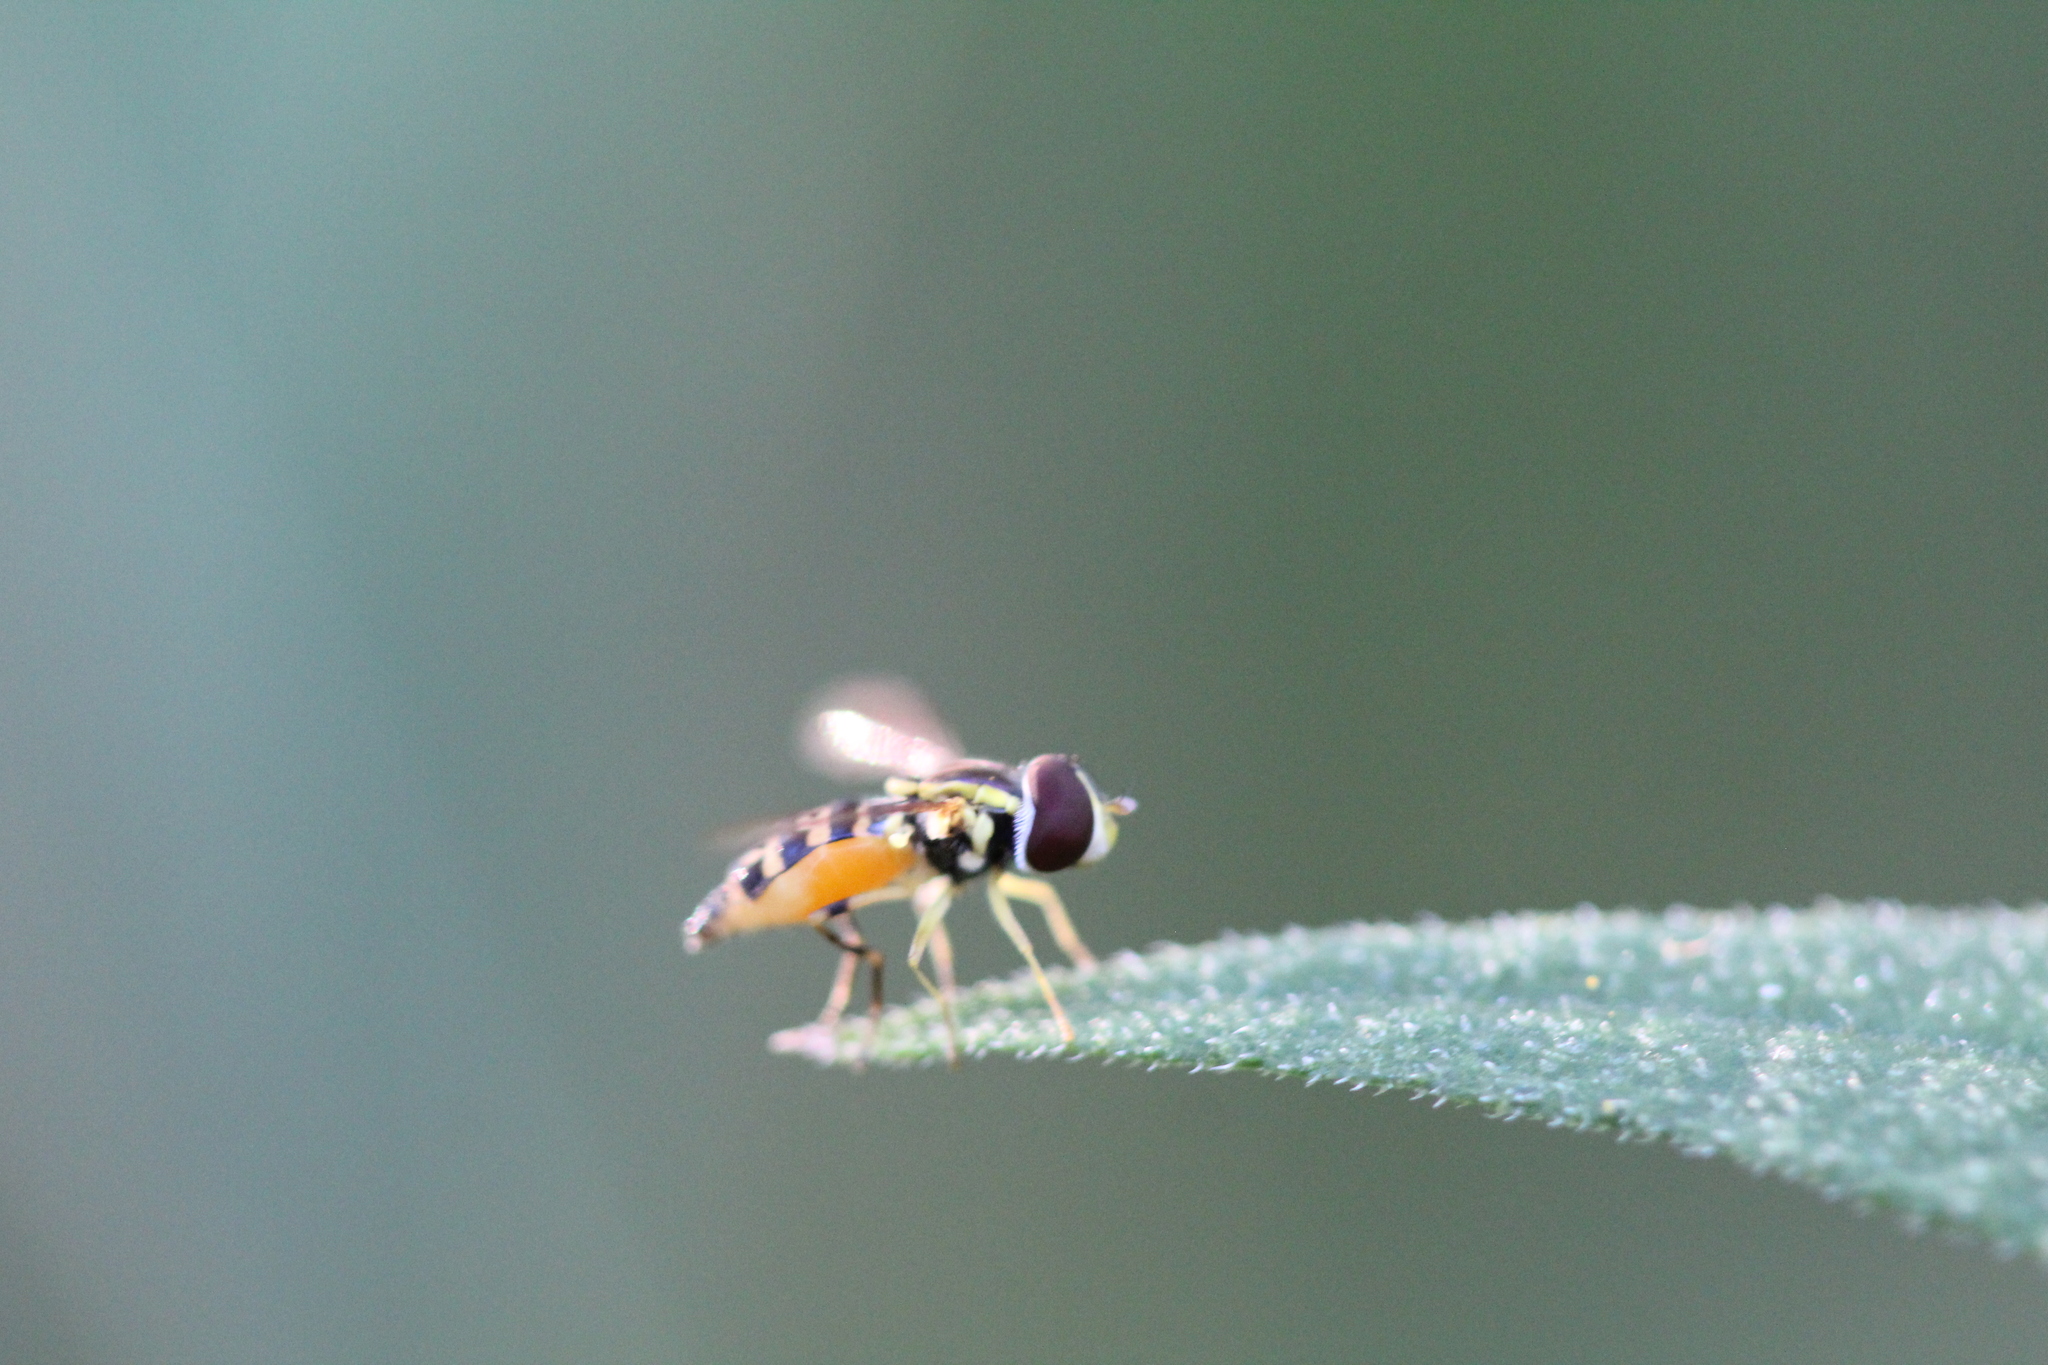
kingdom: Animalia
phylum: Arthropoda
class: Insecta
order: Diptera
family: Syrphidae
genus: Toxomerus
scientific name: Toxomerus geminatus
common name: Eastern calligrapher
